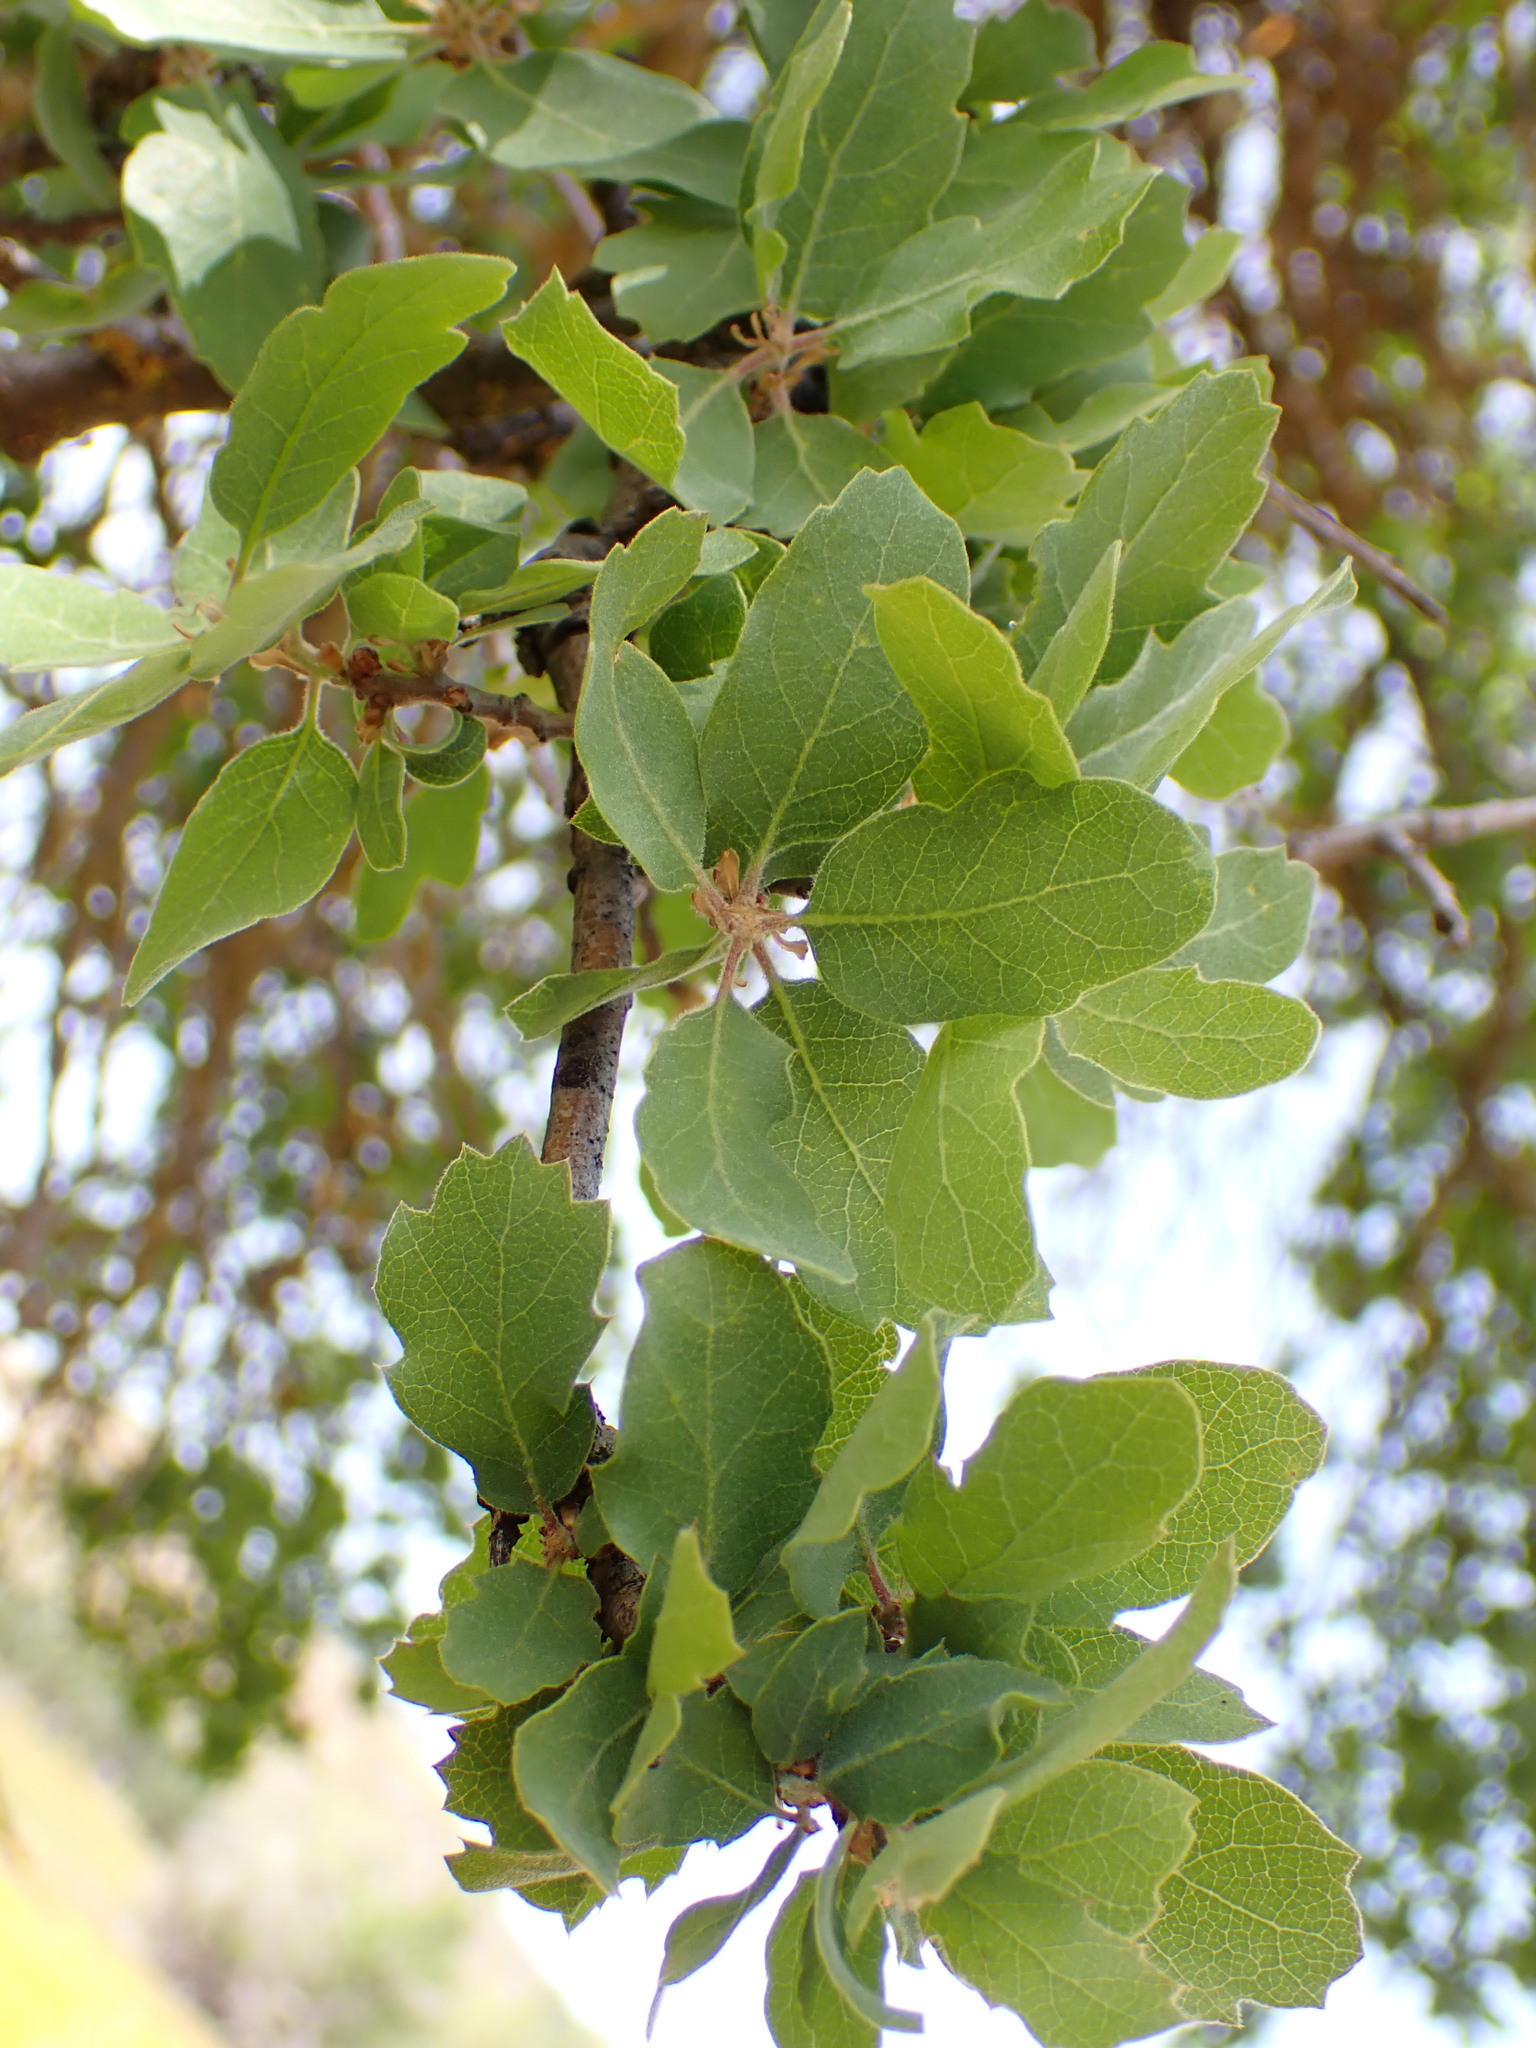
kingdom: Plantae
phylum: Tracheophyta
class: Magnoliopsida
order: Fagales
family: Fagaceae
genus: Quercus
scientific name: Quercus douglasii
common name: Blue oak
